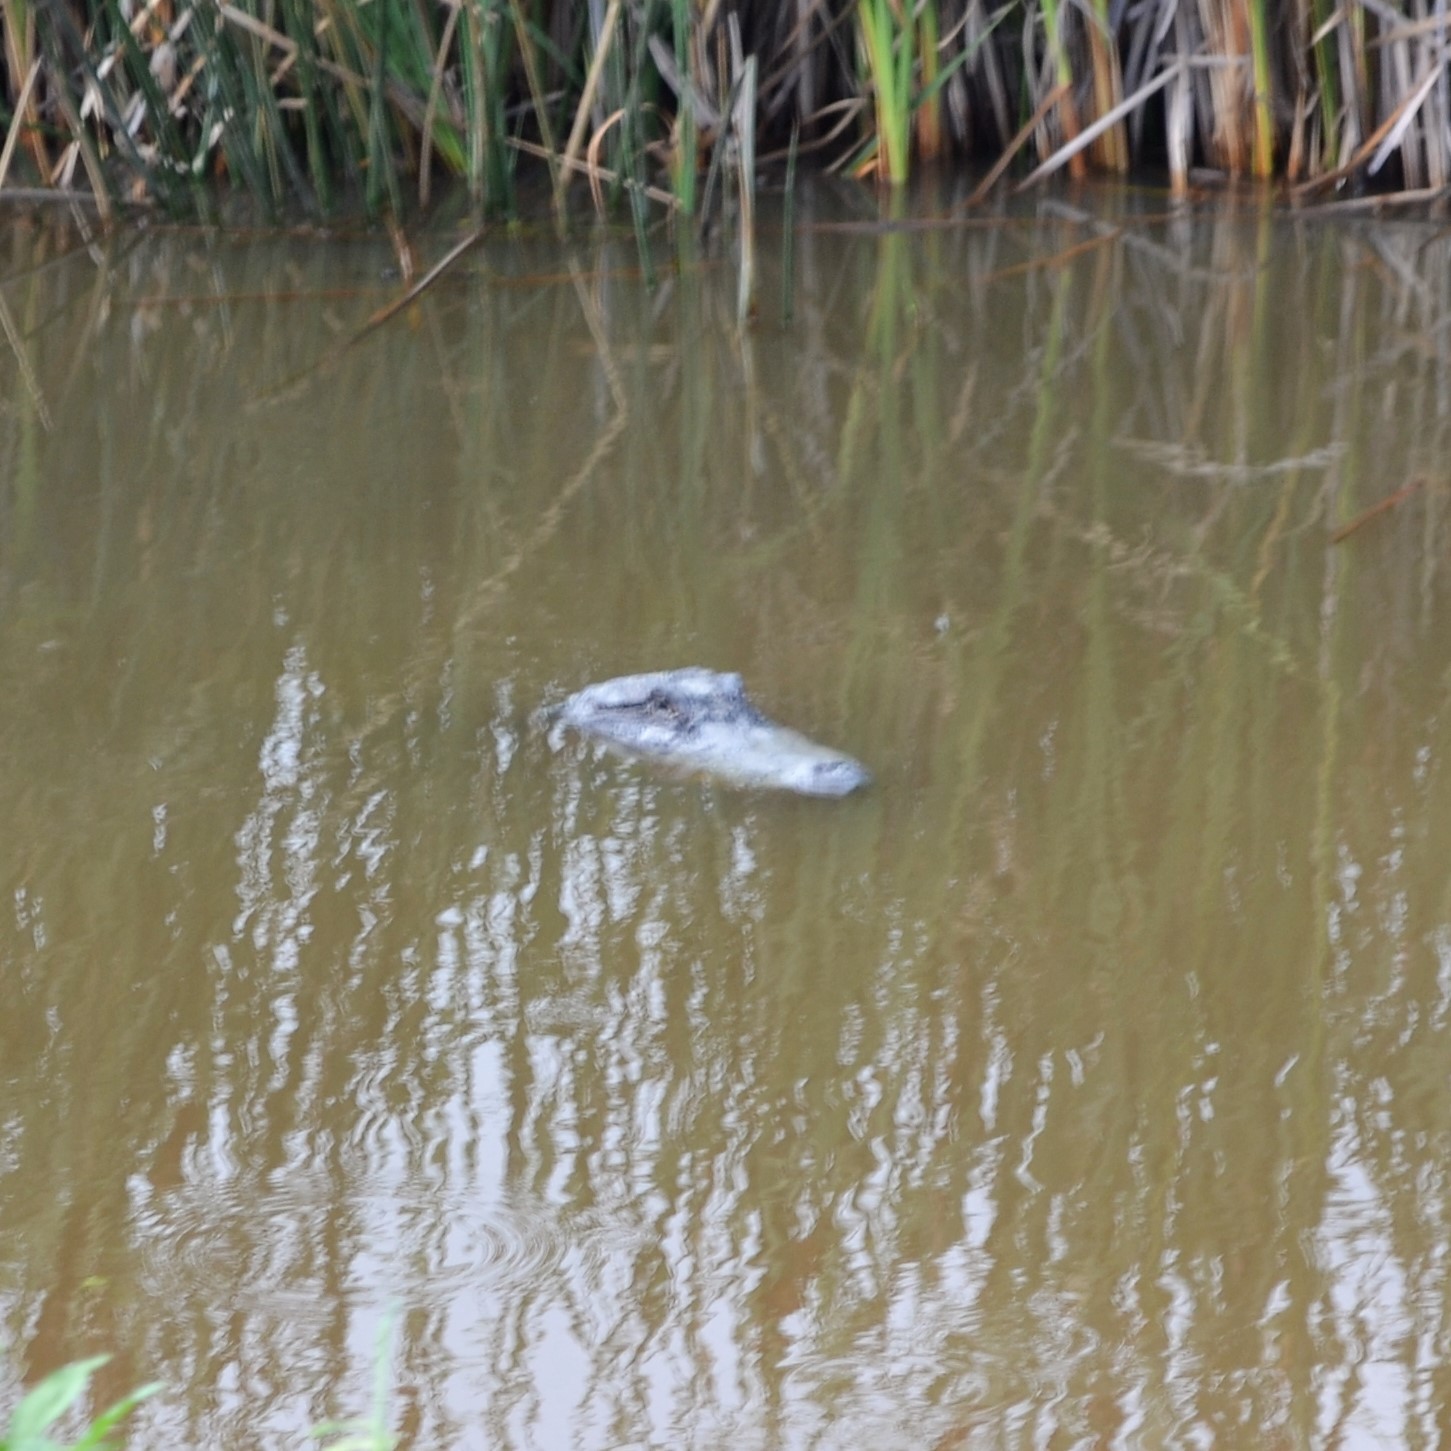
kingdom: Animalia
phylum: Chordata
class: Crocodylia
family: Alligatoridae
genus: Alligator
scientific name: Alligator mississippiensis
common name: American alligator
